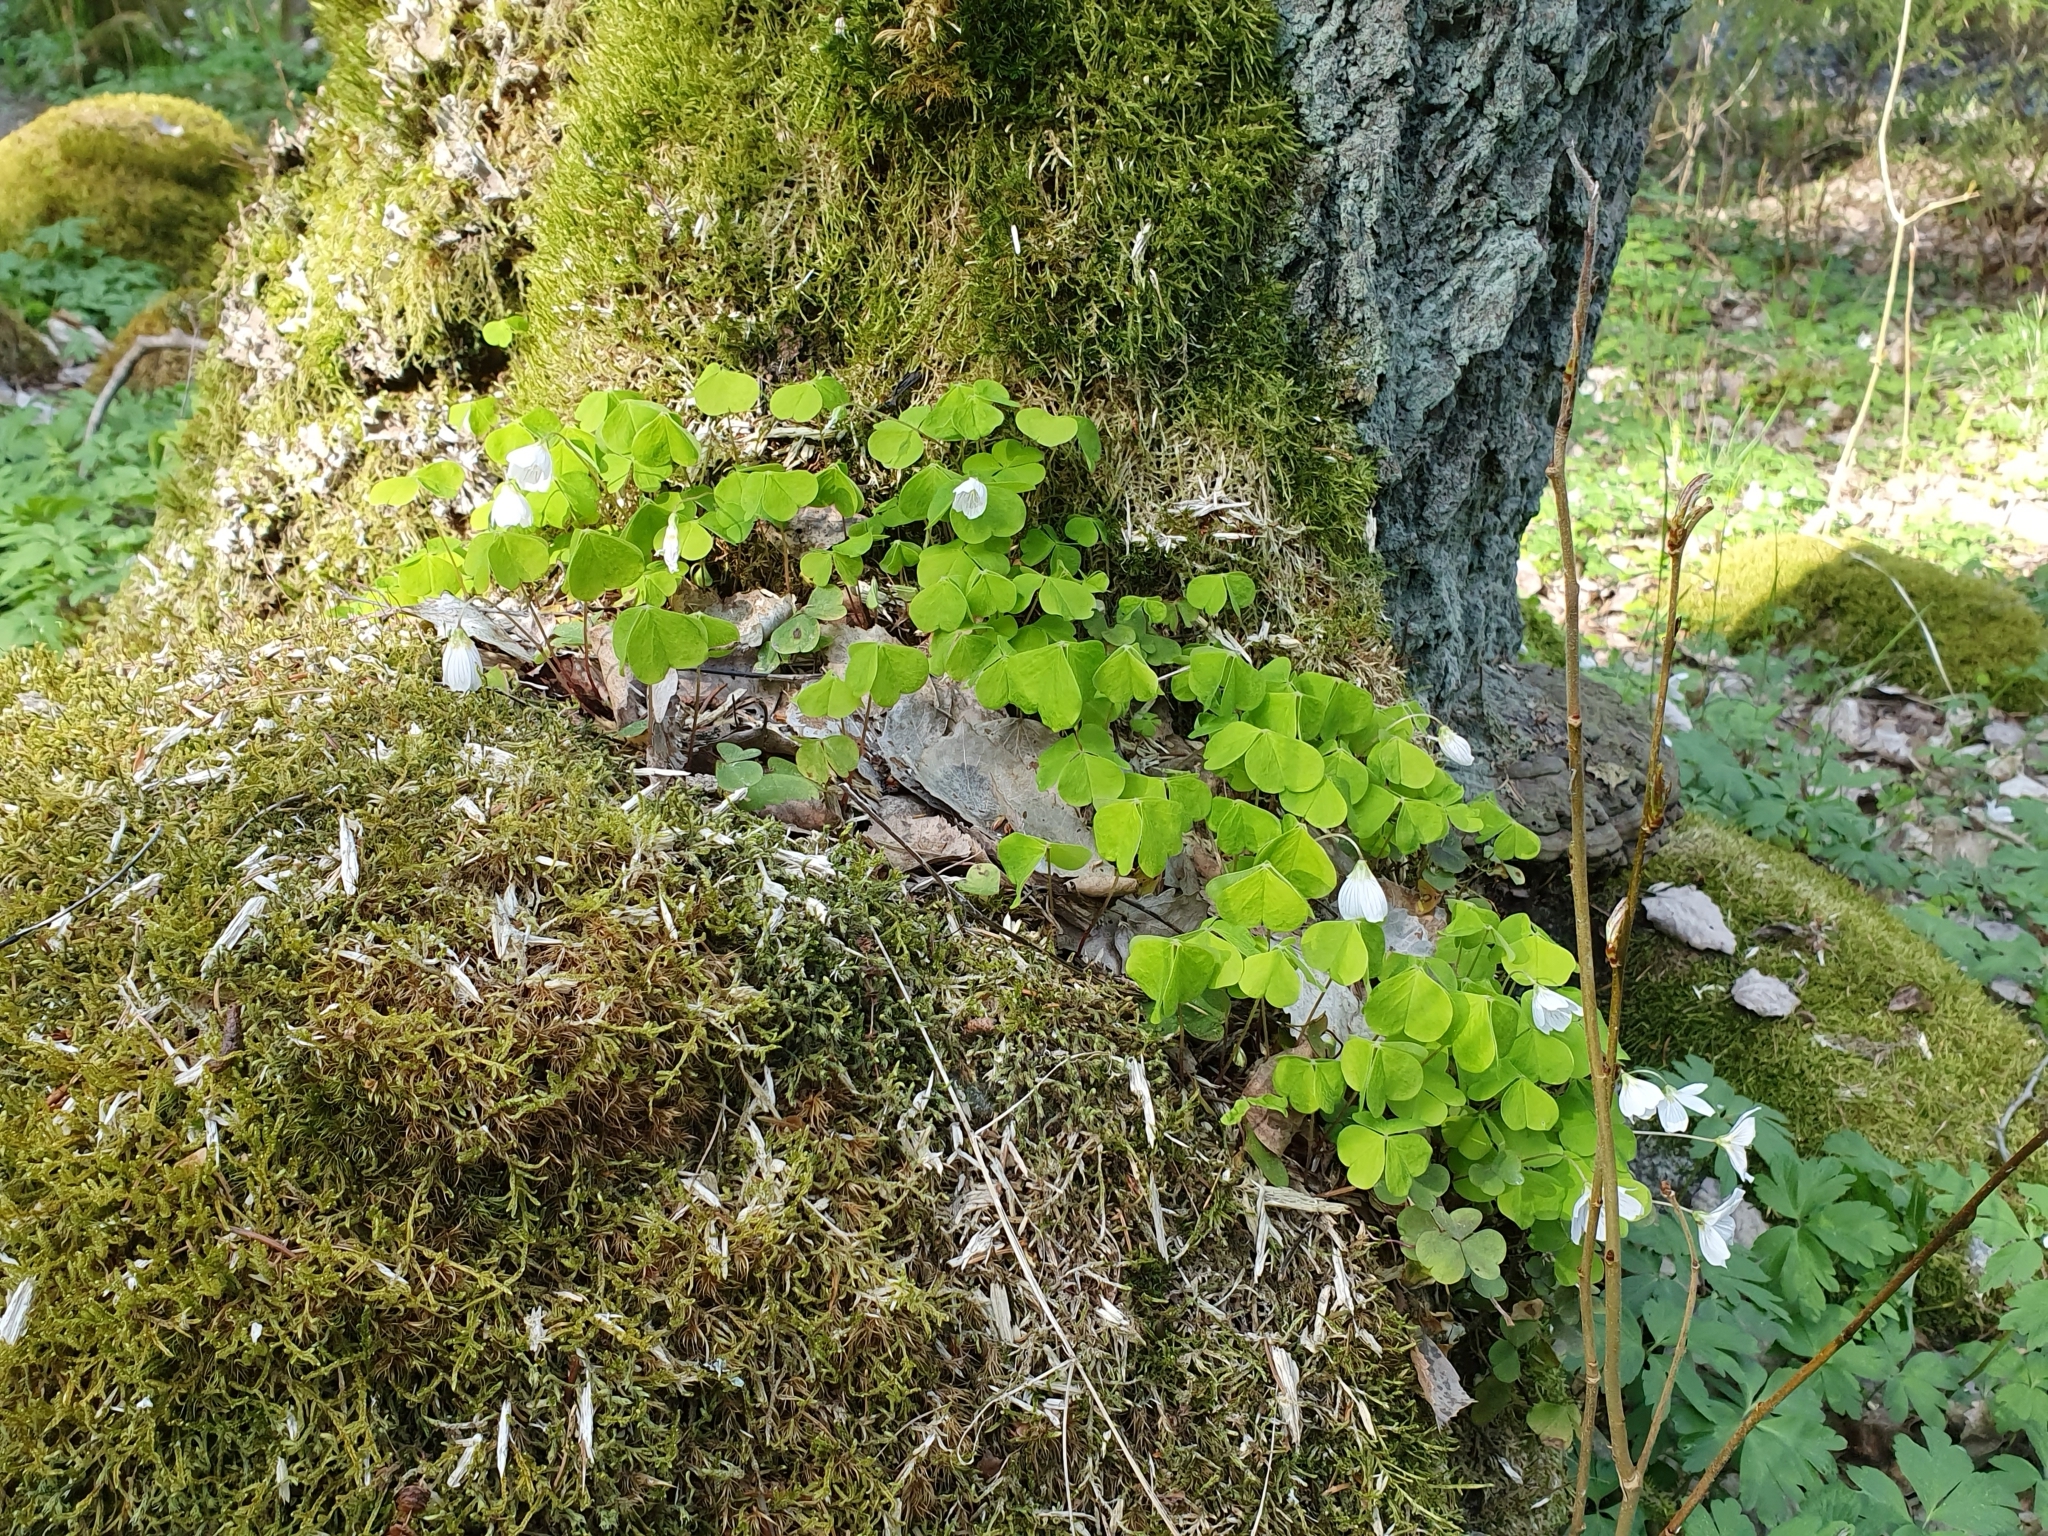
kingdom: Plantae
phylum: Tracheophyta
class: Magnoliopsida
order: Oxalidales
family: Oxalidaceae
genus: Oxalis
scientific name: Oxalis acetosella
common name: Wood-sorrel
